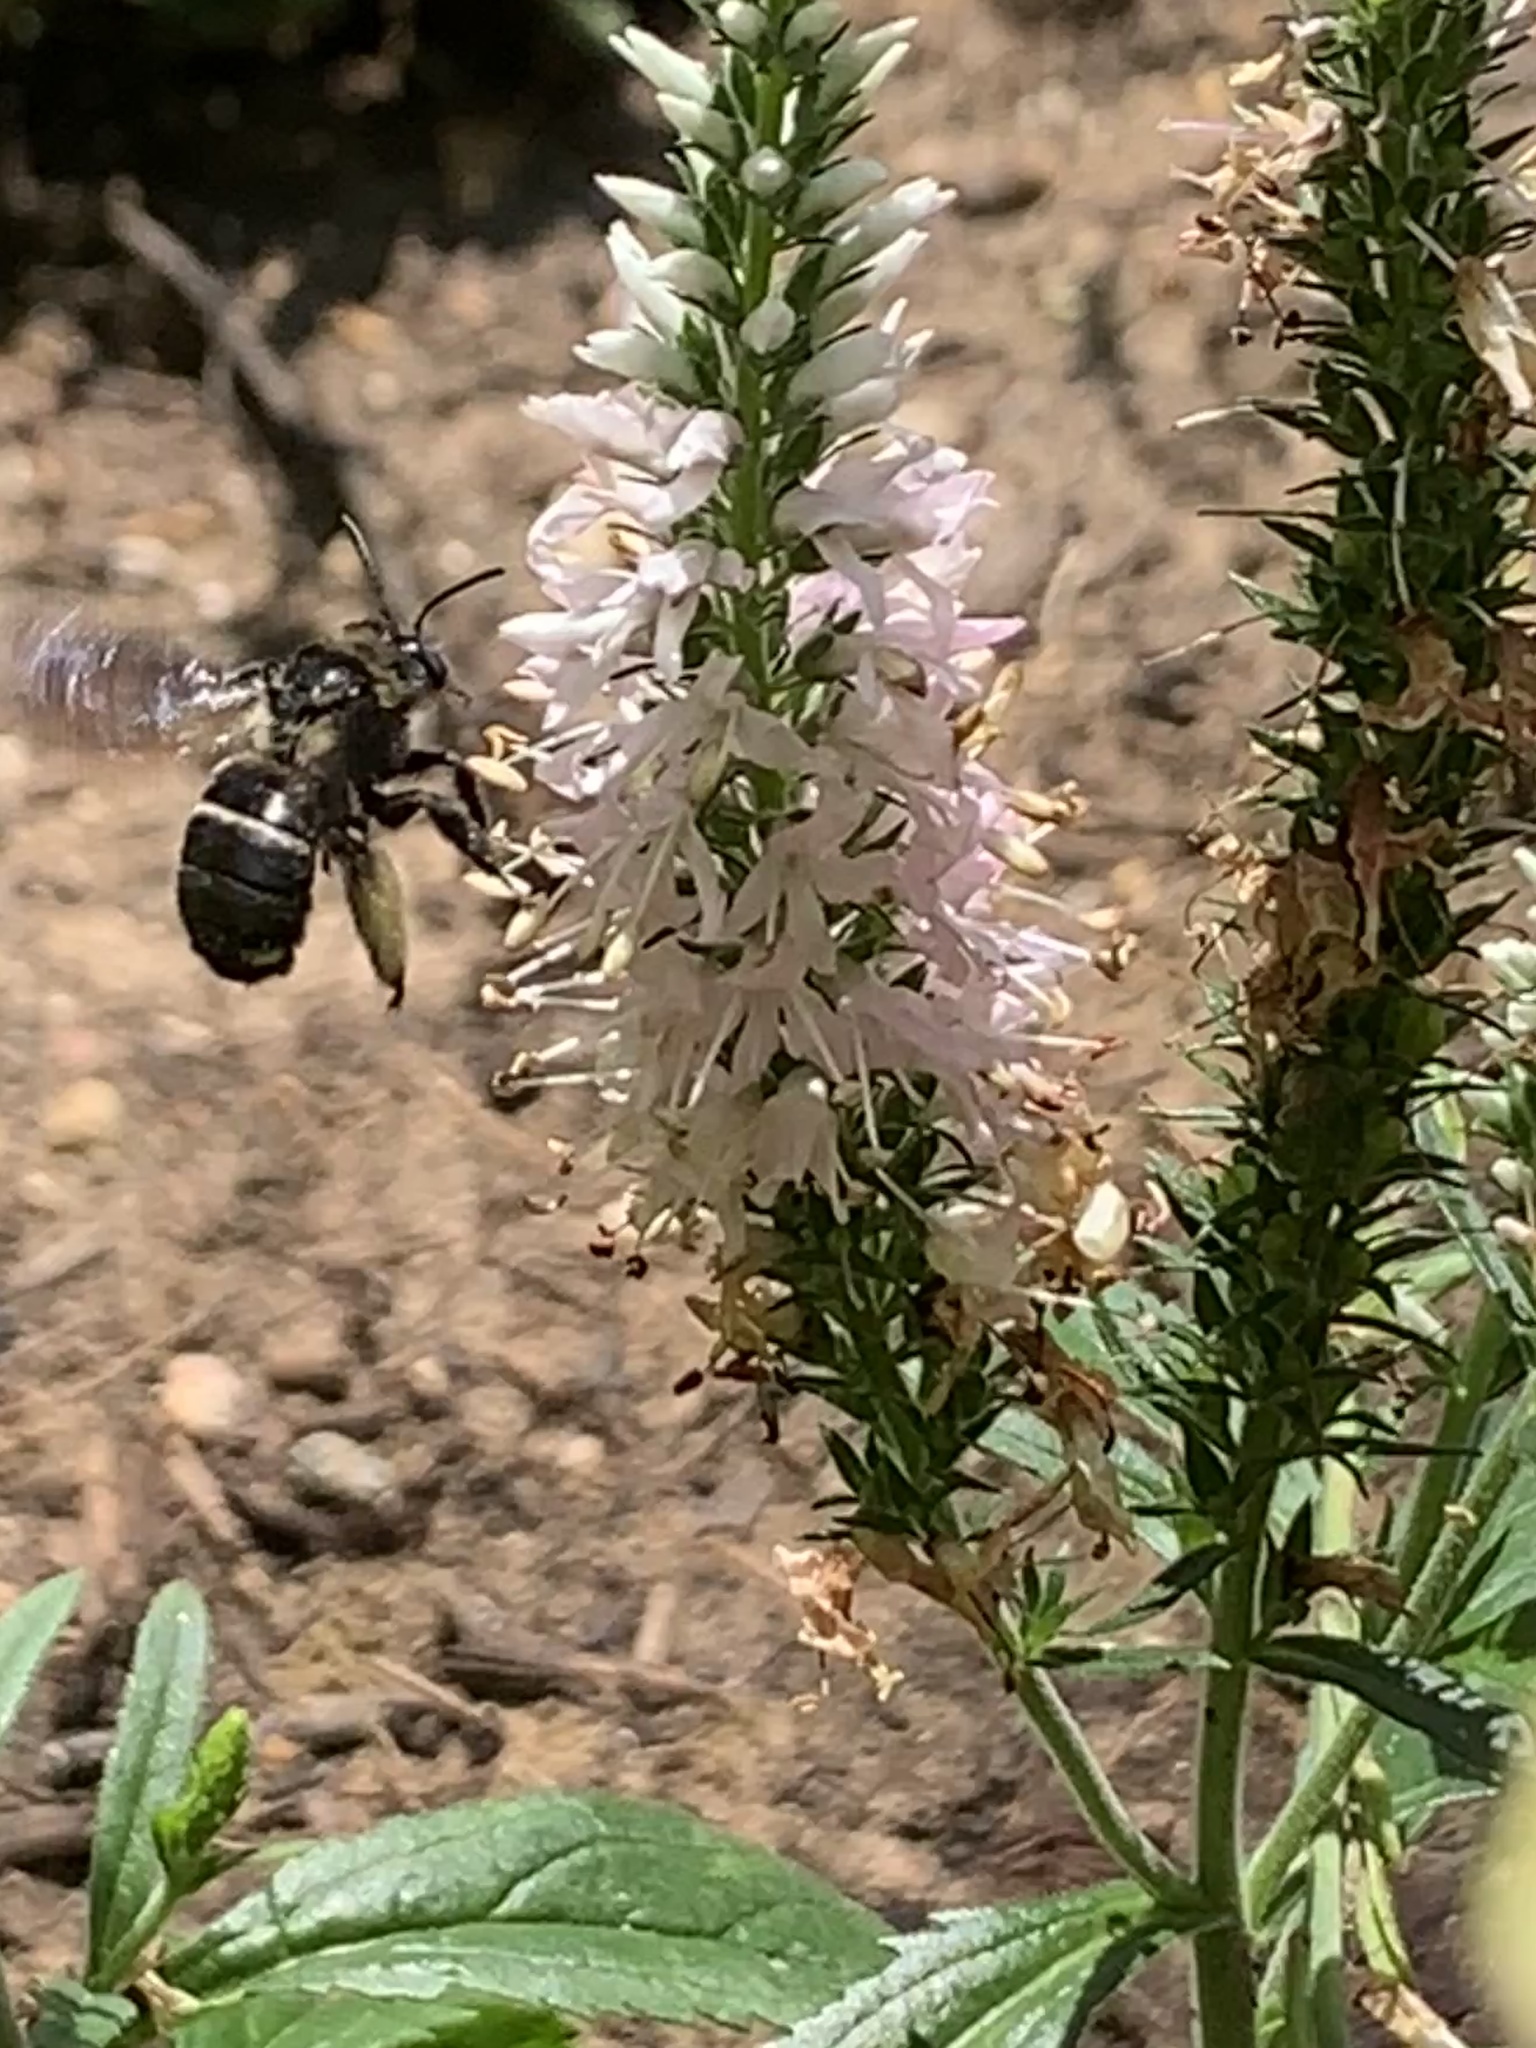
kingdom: Animalia
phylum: Arthropoda
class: Insecta
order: Hymenoptera
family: Apidae
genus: Melissodes
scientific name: Melissodes bimaculatus
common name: Two-spotted long-horned bee
